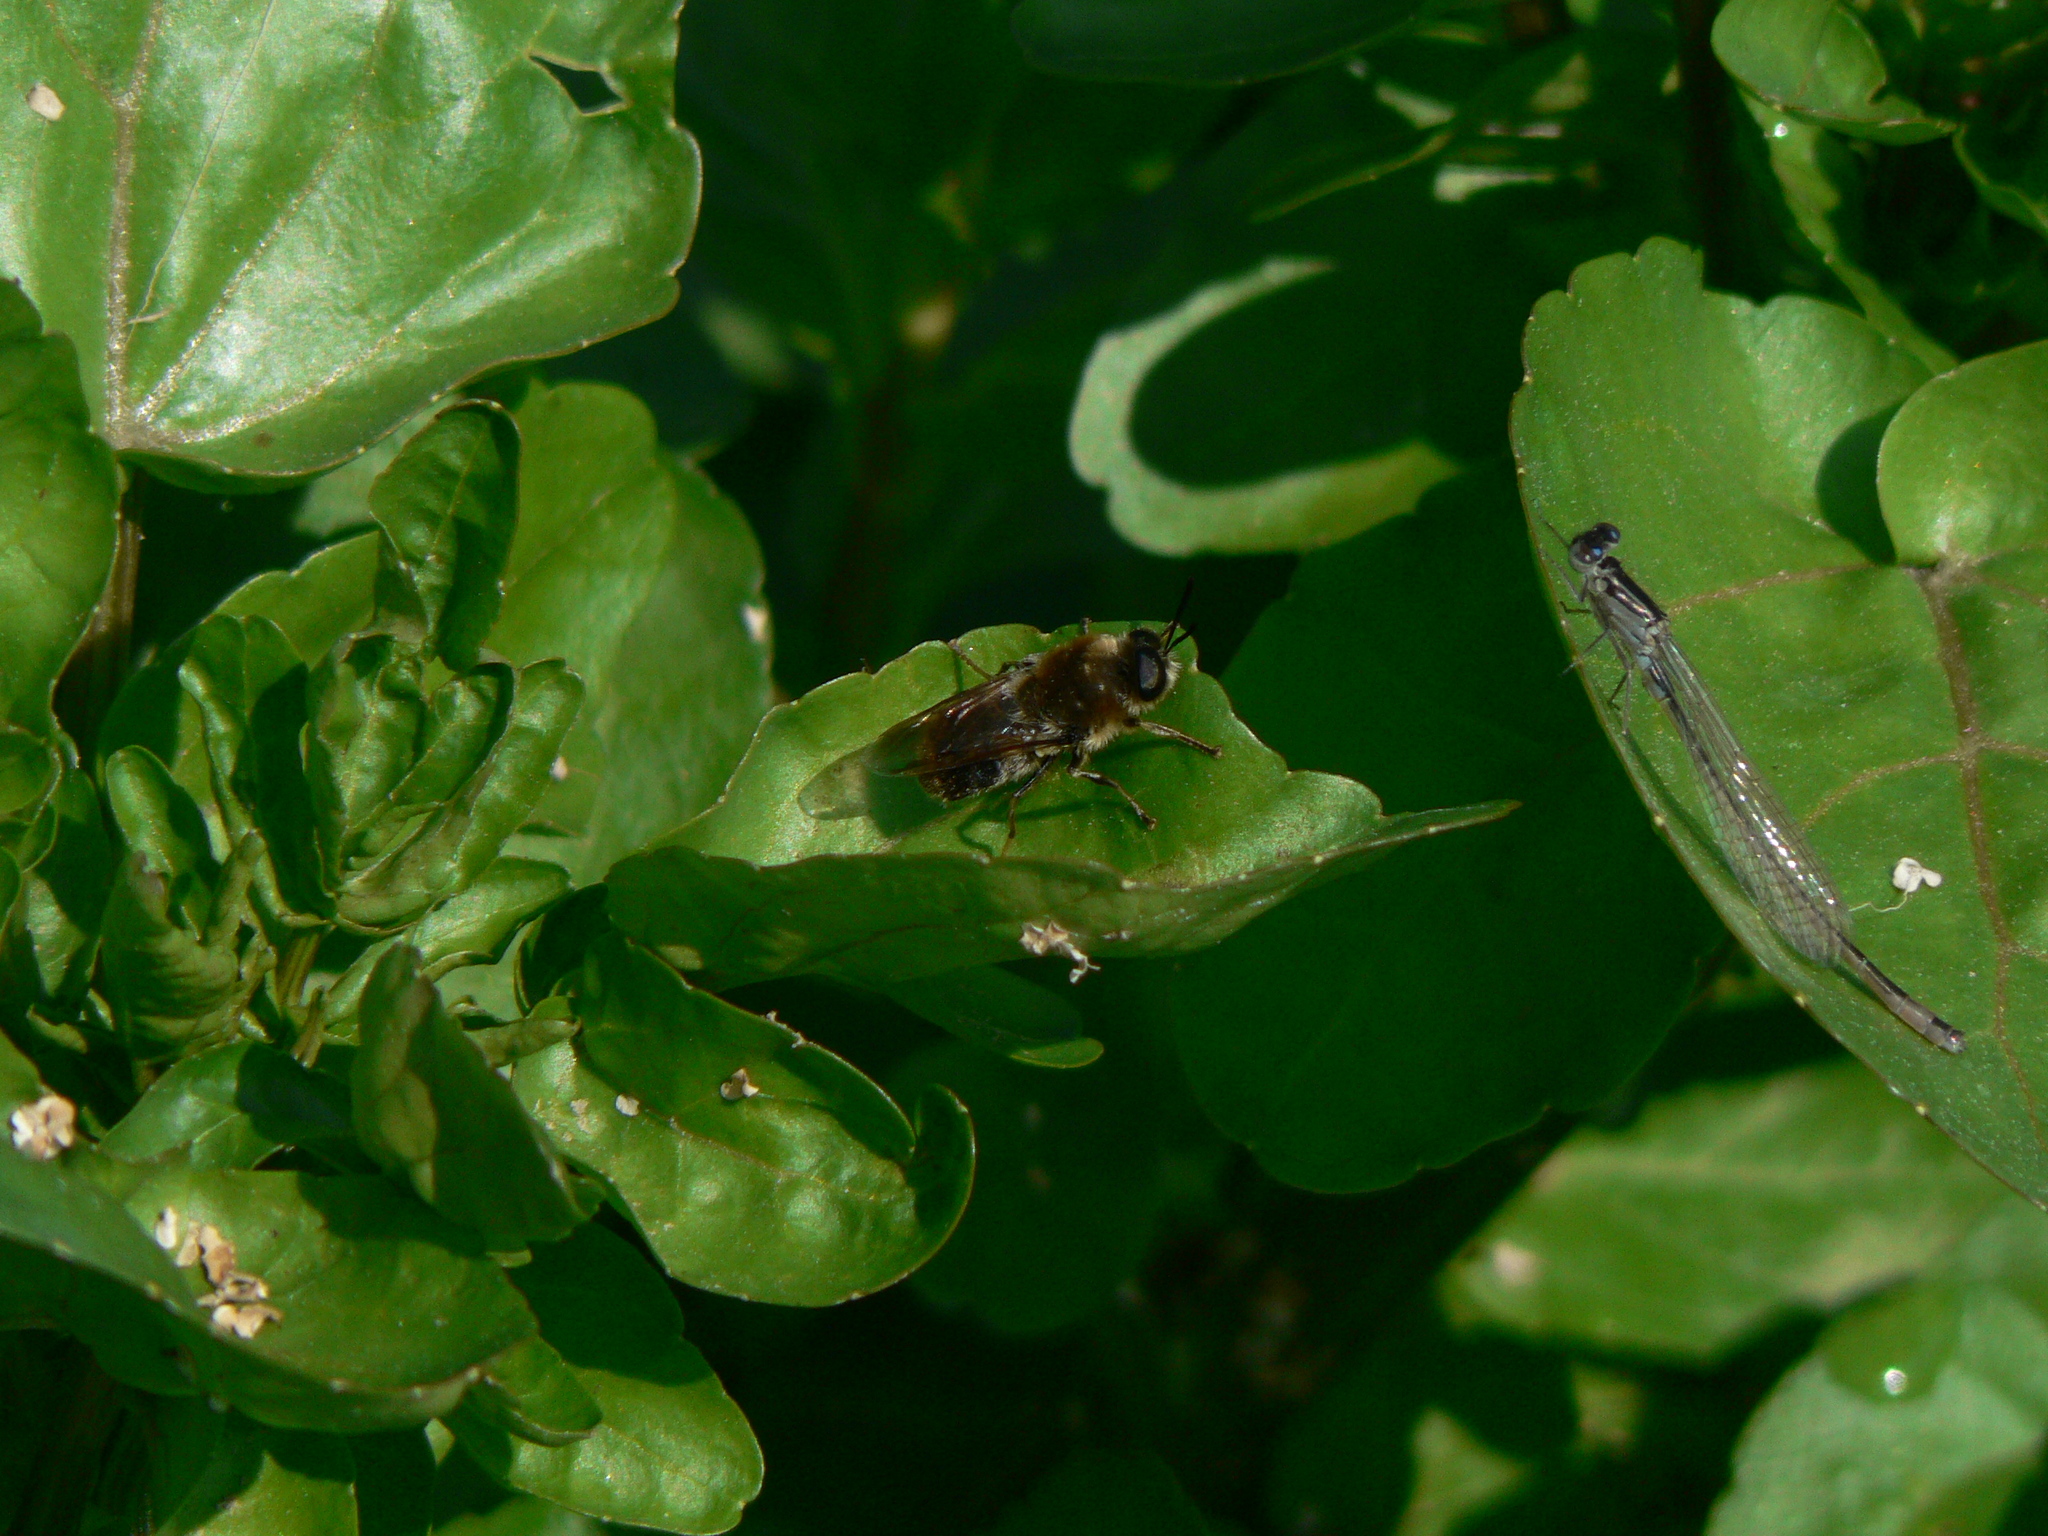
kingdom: Animalia
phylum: Arthropoda
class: Insecta
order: Diptera
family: Stratiomyidae
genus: Stratiomys
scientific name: Stratiomys longicornis
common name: Long-horned general
